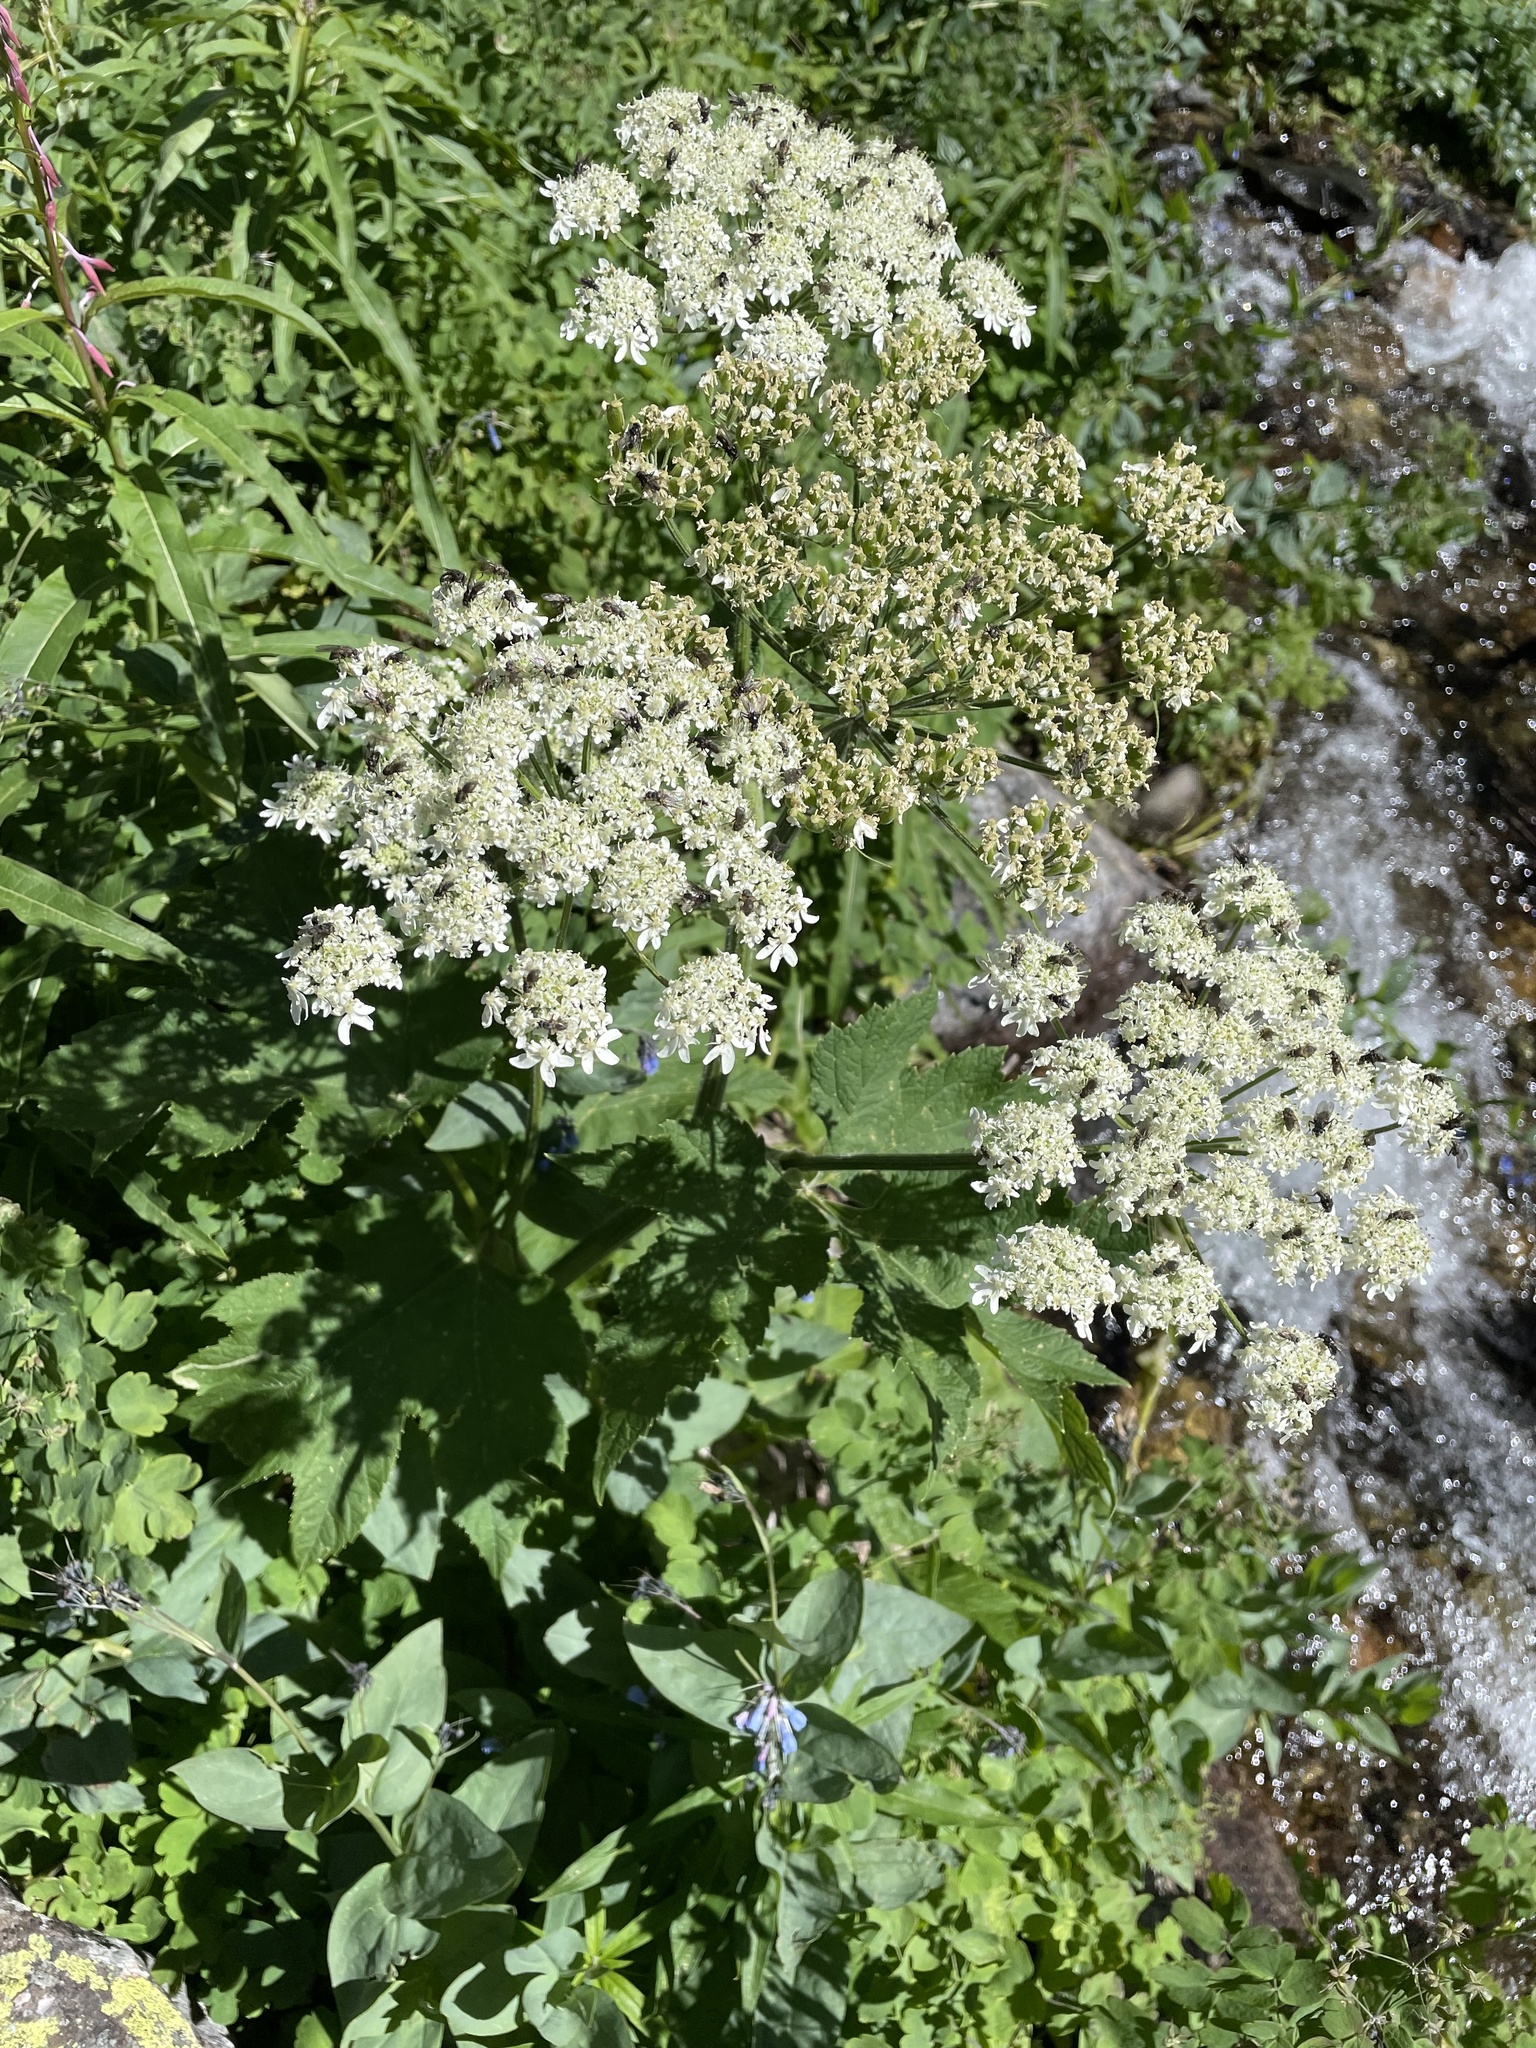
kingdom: Plantae
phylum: Tracheophyta
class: Magnoliopsida
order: Apiales
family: Apiaceae
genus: Heracleum
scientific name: Heracleum maximum
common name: American cow parsnip
